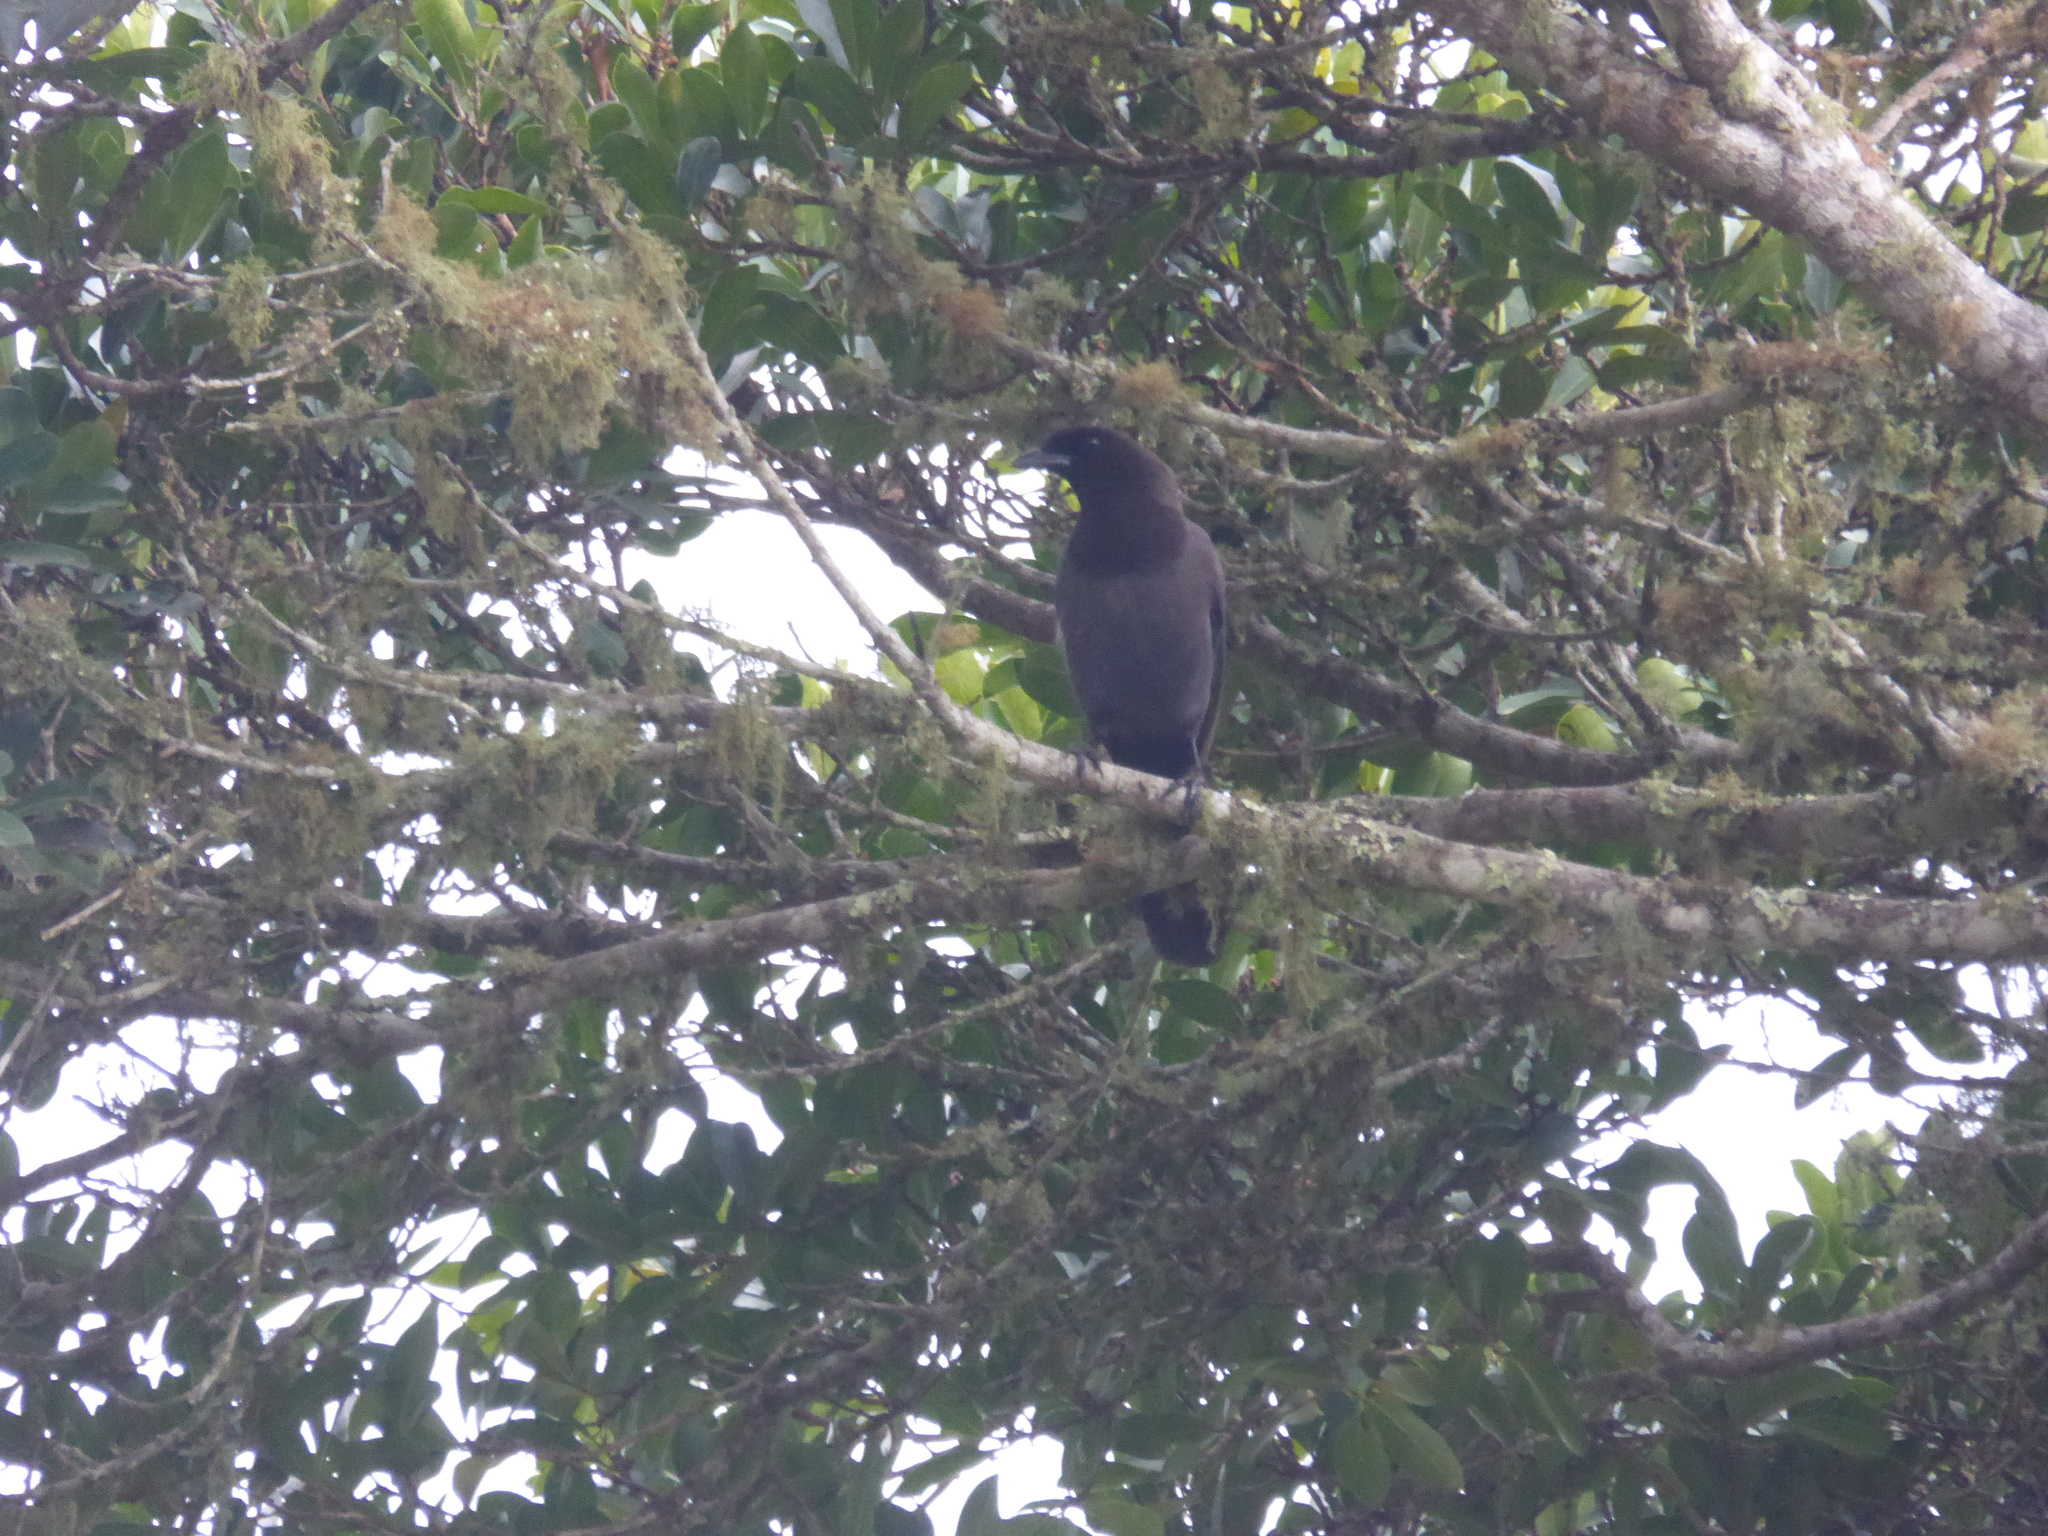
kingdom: Animalia
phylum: Chordata
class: Aves
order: Passeriformes
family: Corvidae
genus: Cyanocorax
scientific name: Cyanocorax cyanomelas
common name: Purplish jay
